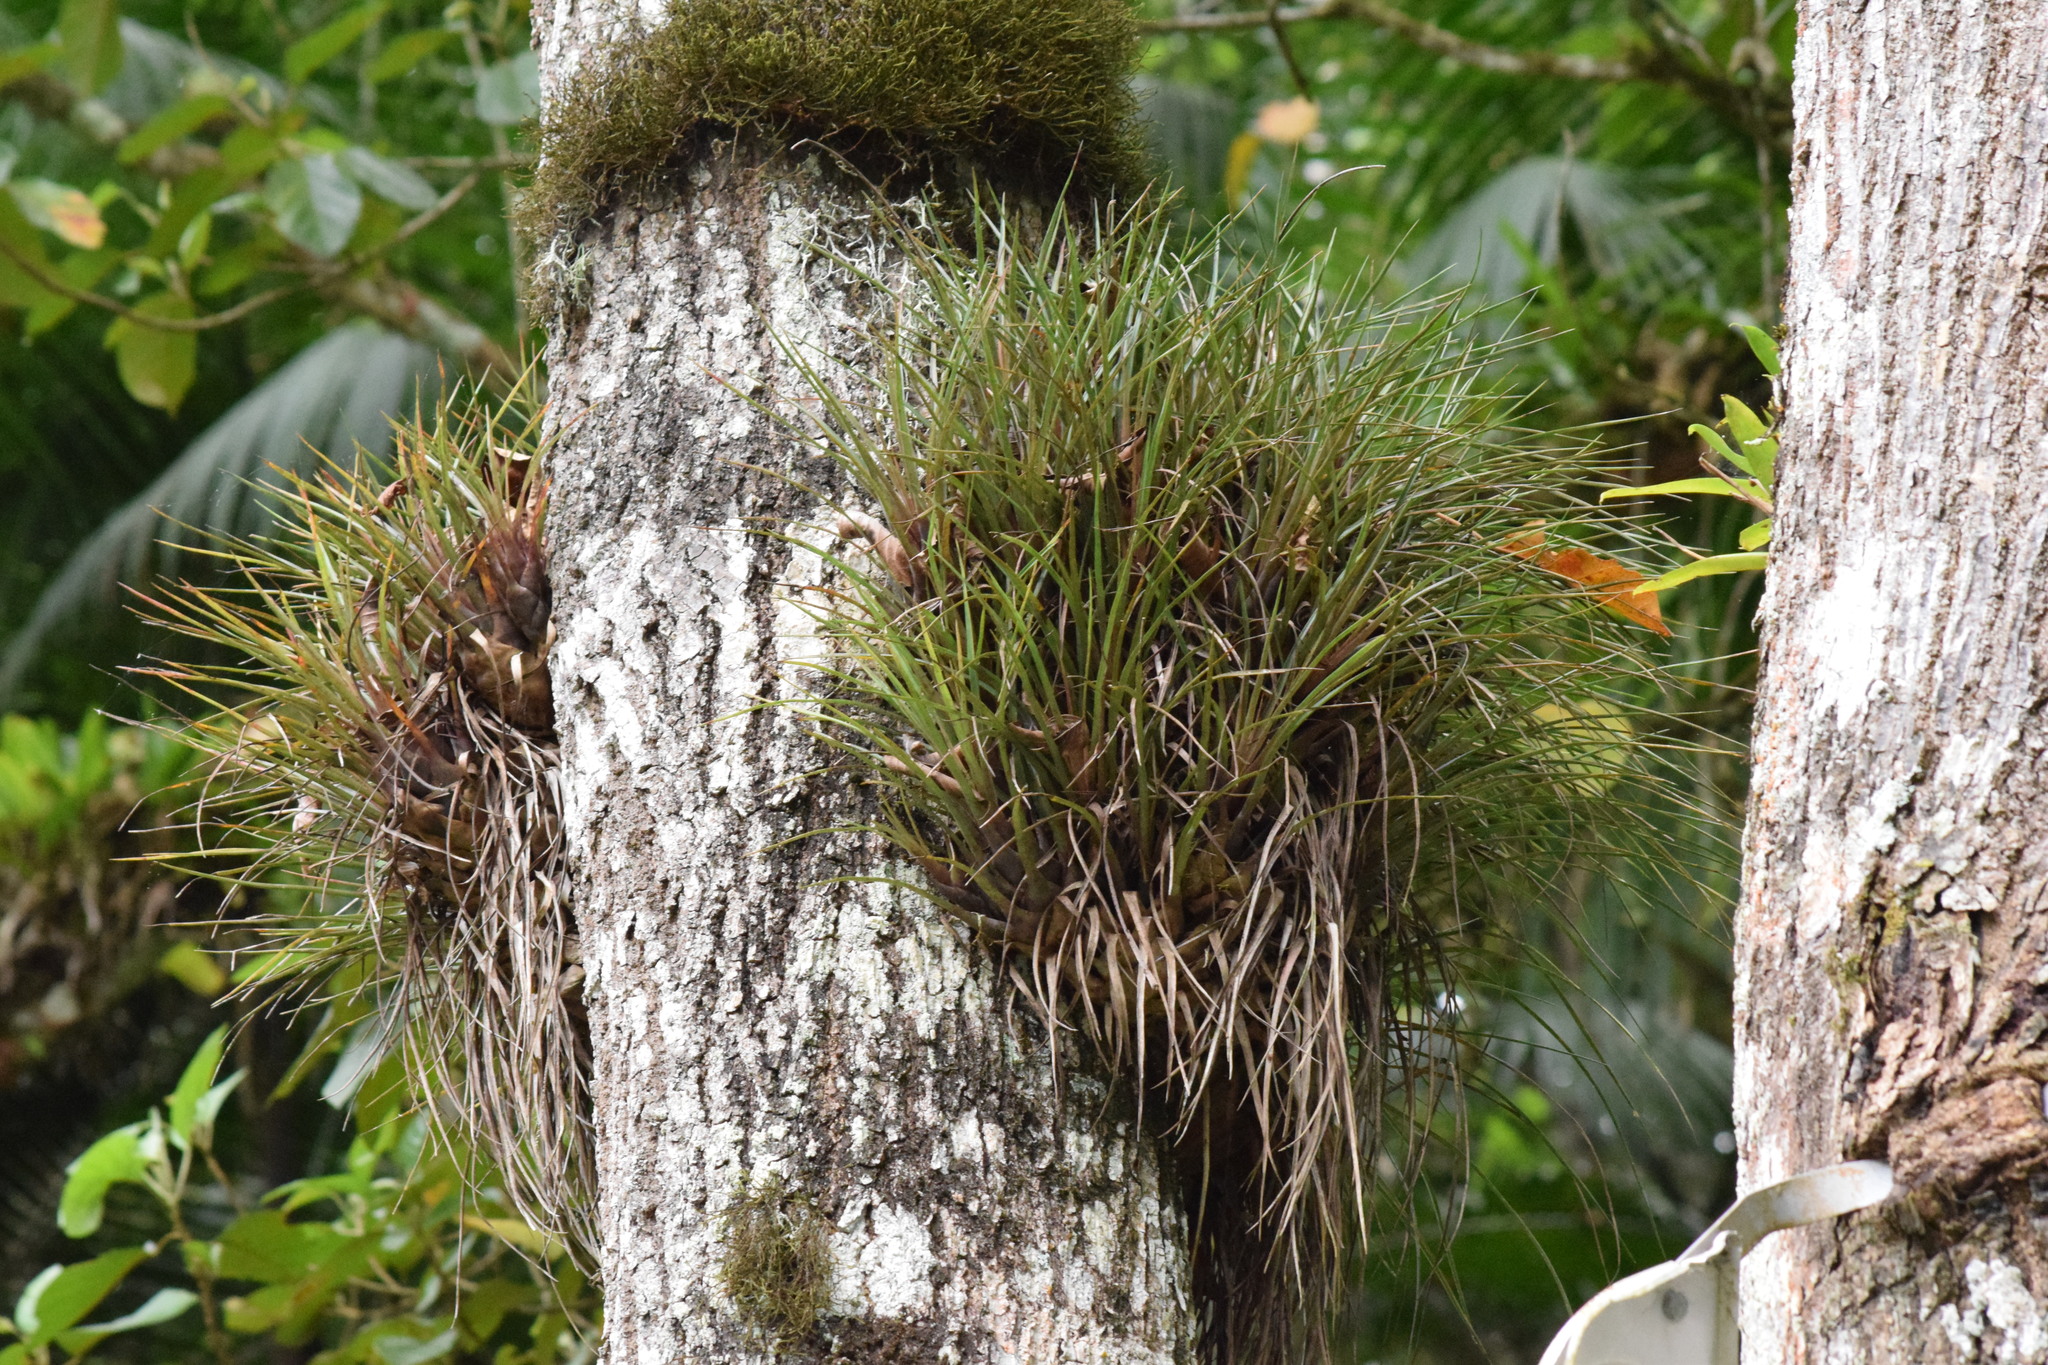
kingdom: Plantae
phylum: Tracheophyta
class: Liliopsida
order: Poales
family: Bromeliaceae
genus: Vriesea
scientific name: Vriesea flammea
